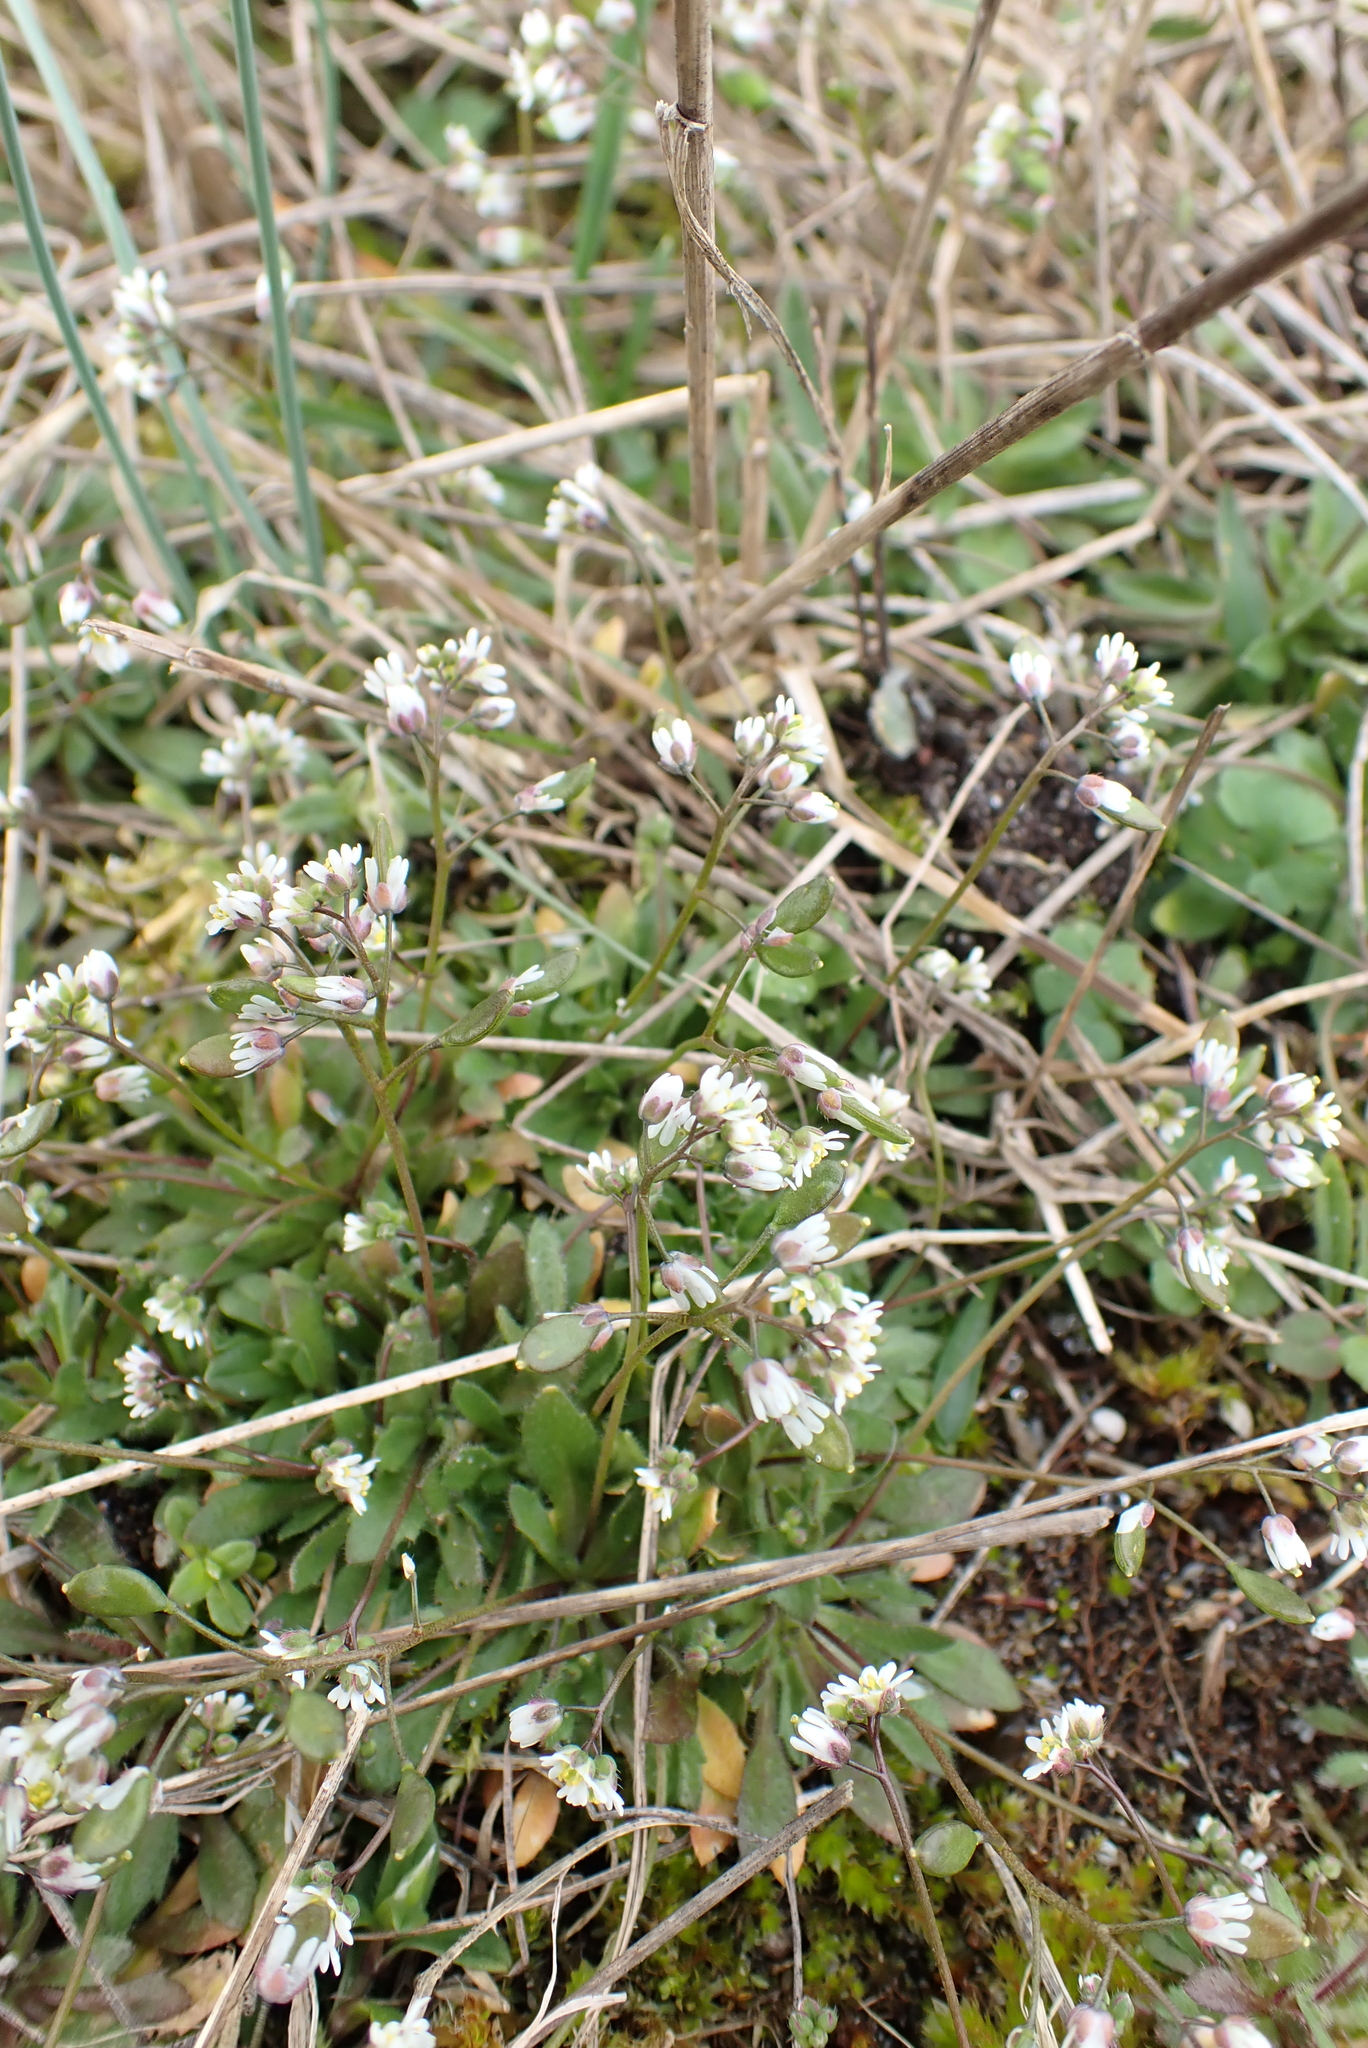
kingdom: Plantae
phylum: Tracheophyta
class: Magnoliopsida
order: Brassicales
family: Brassicaceae
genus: Draba
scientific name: Draba verna
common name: Spring draba
